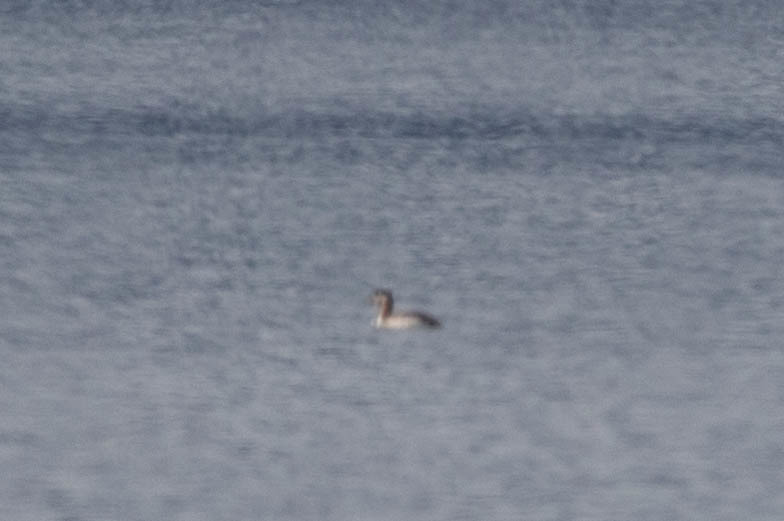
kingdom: Animalia
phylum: Chordata
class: Aves
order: Podicipediformes
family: Podicipedidae
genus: Podiceps
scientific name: Podiceps grisegena
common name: Red-necked grebe
